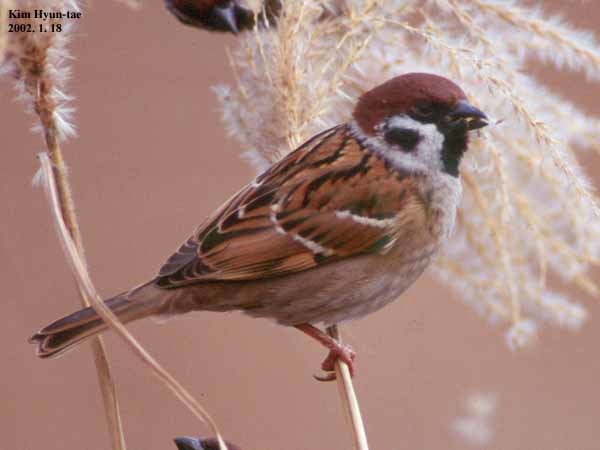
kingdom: Animalia
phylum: Chordata
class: Aves
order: Passeriformes
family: Passeridae
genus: Passer
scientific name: Passer montanus
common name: Eurasian tree sparrow
